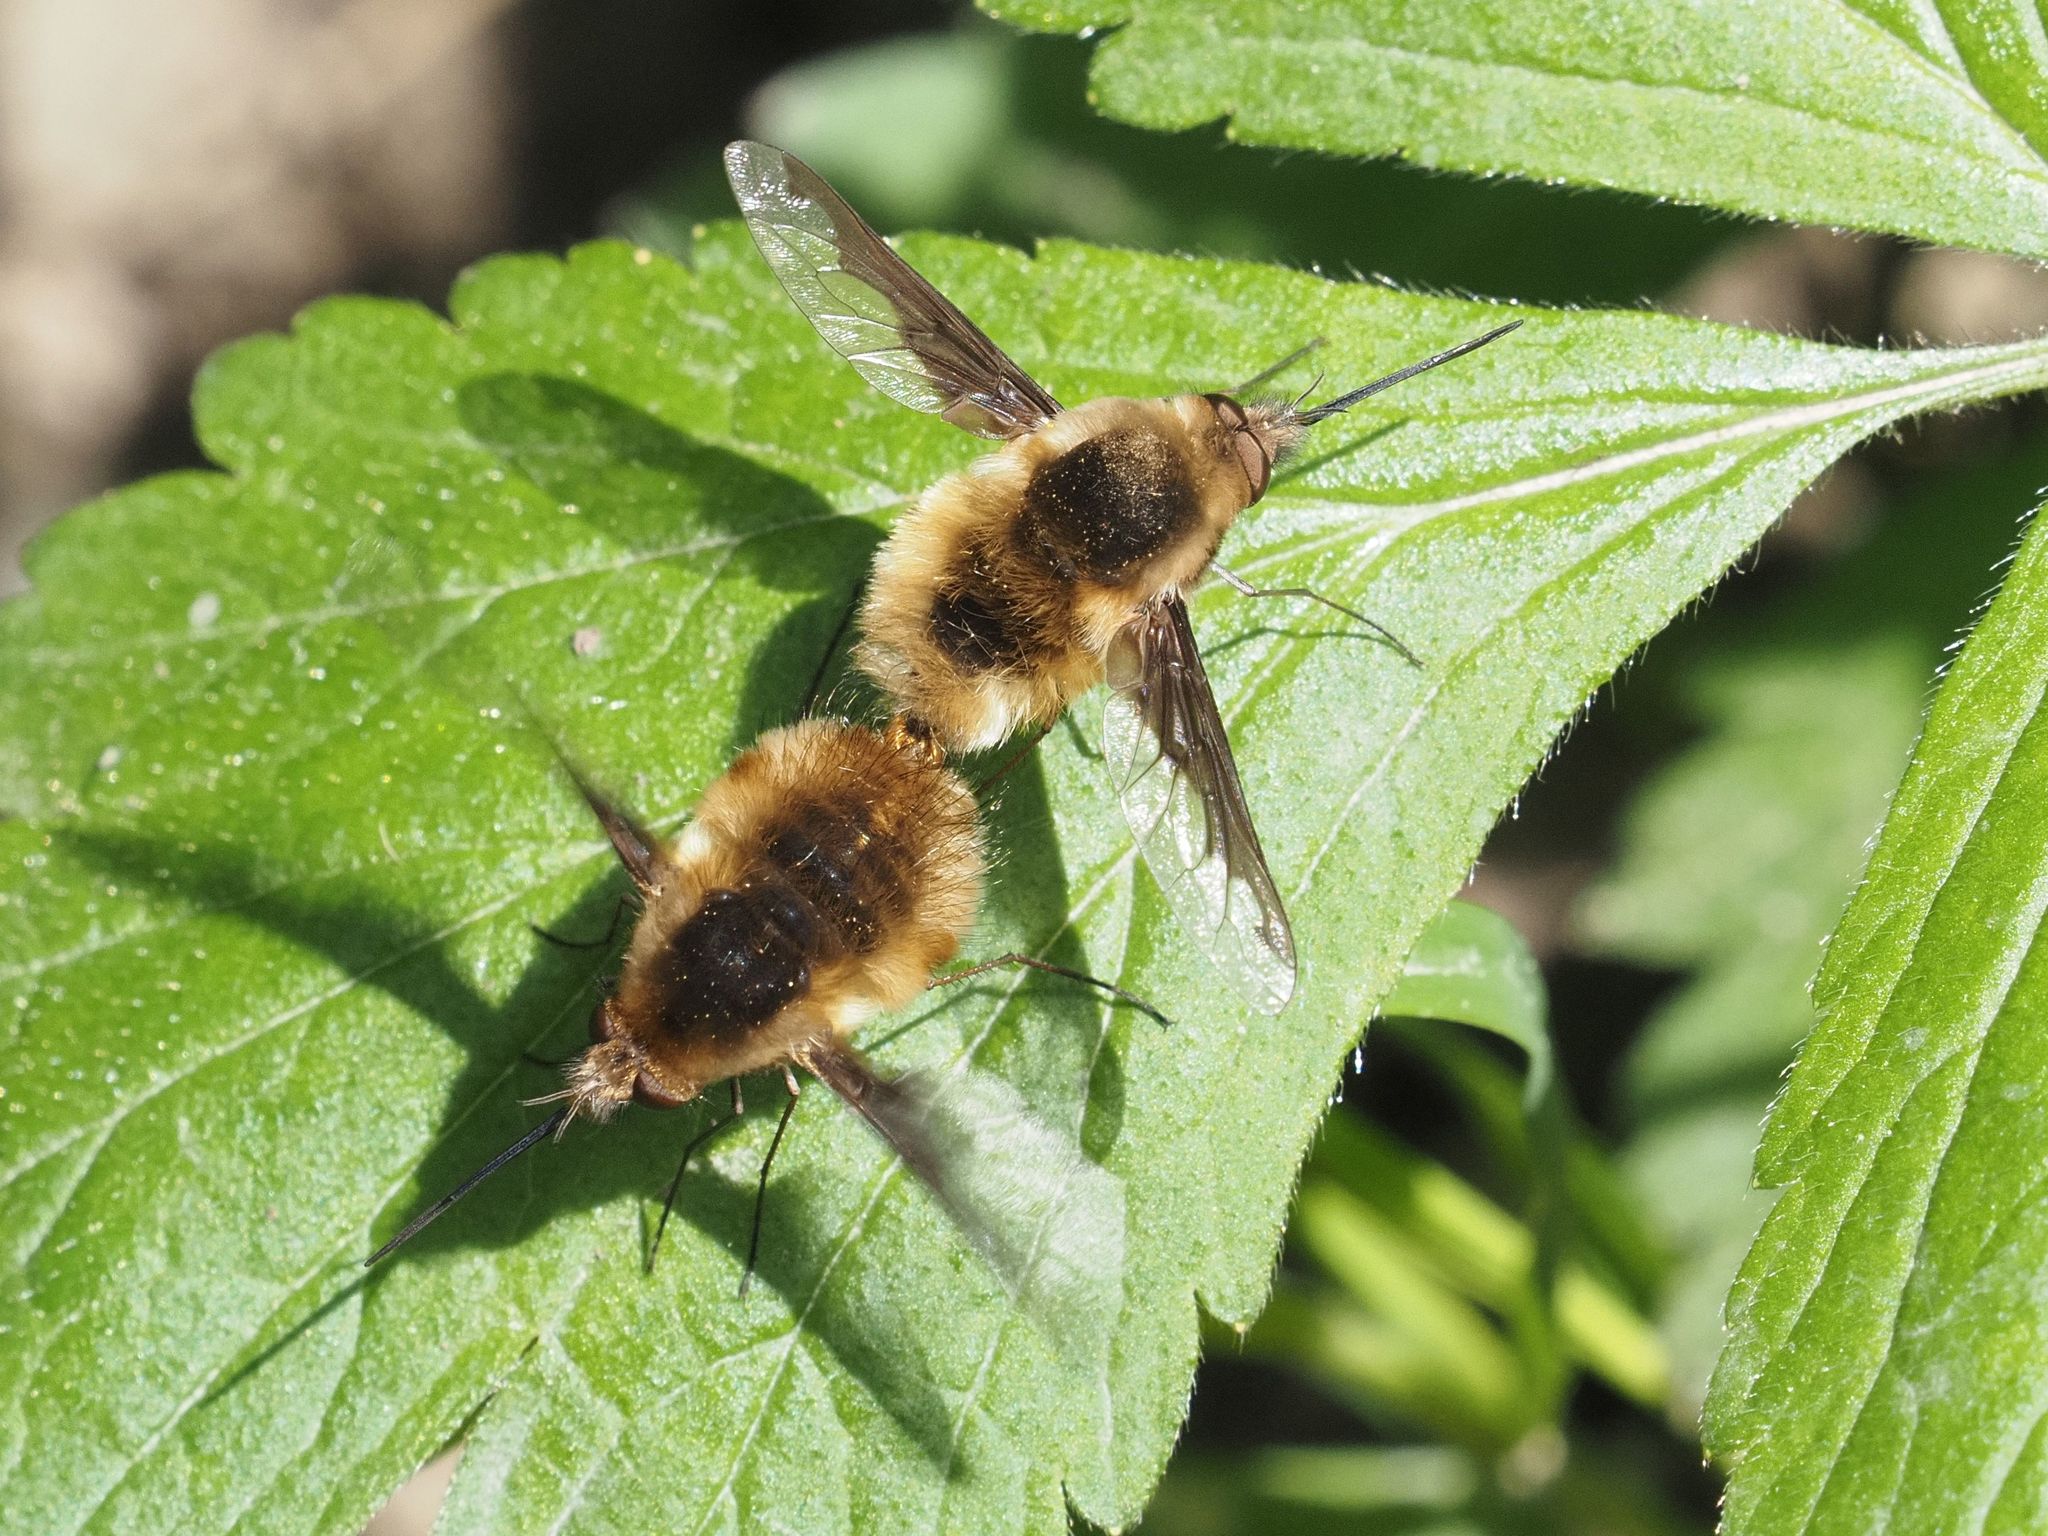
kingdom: Animalia
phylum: Arthropoda
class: Insecta
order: Diptera
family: Bombyliidae
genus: Bombylius
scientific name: Bombylius major
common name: Bee fly
